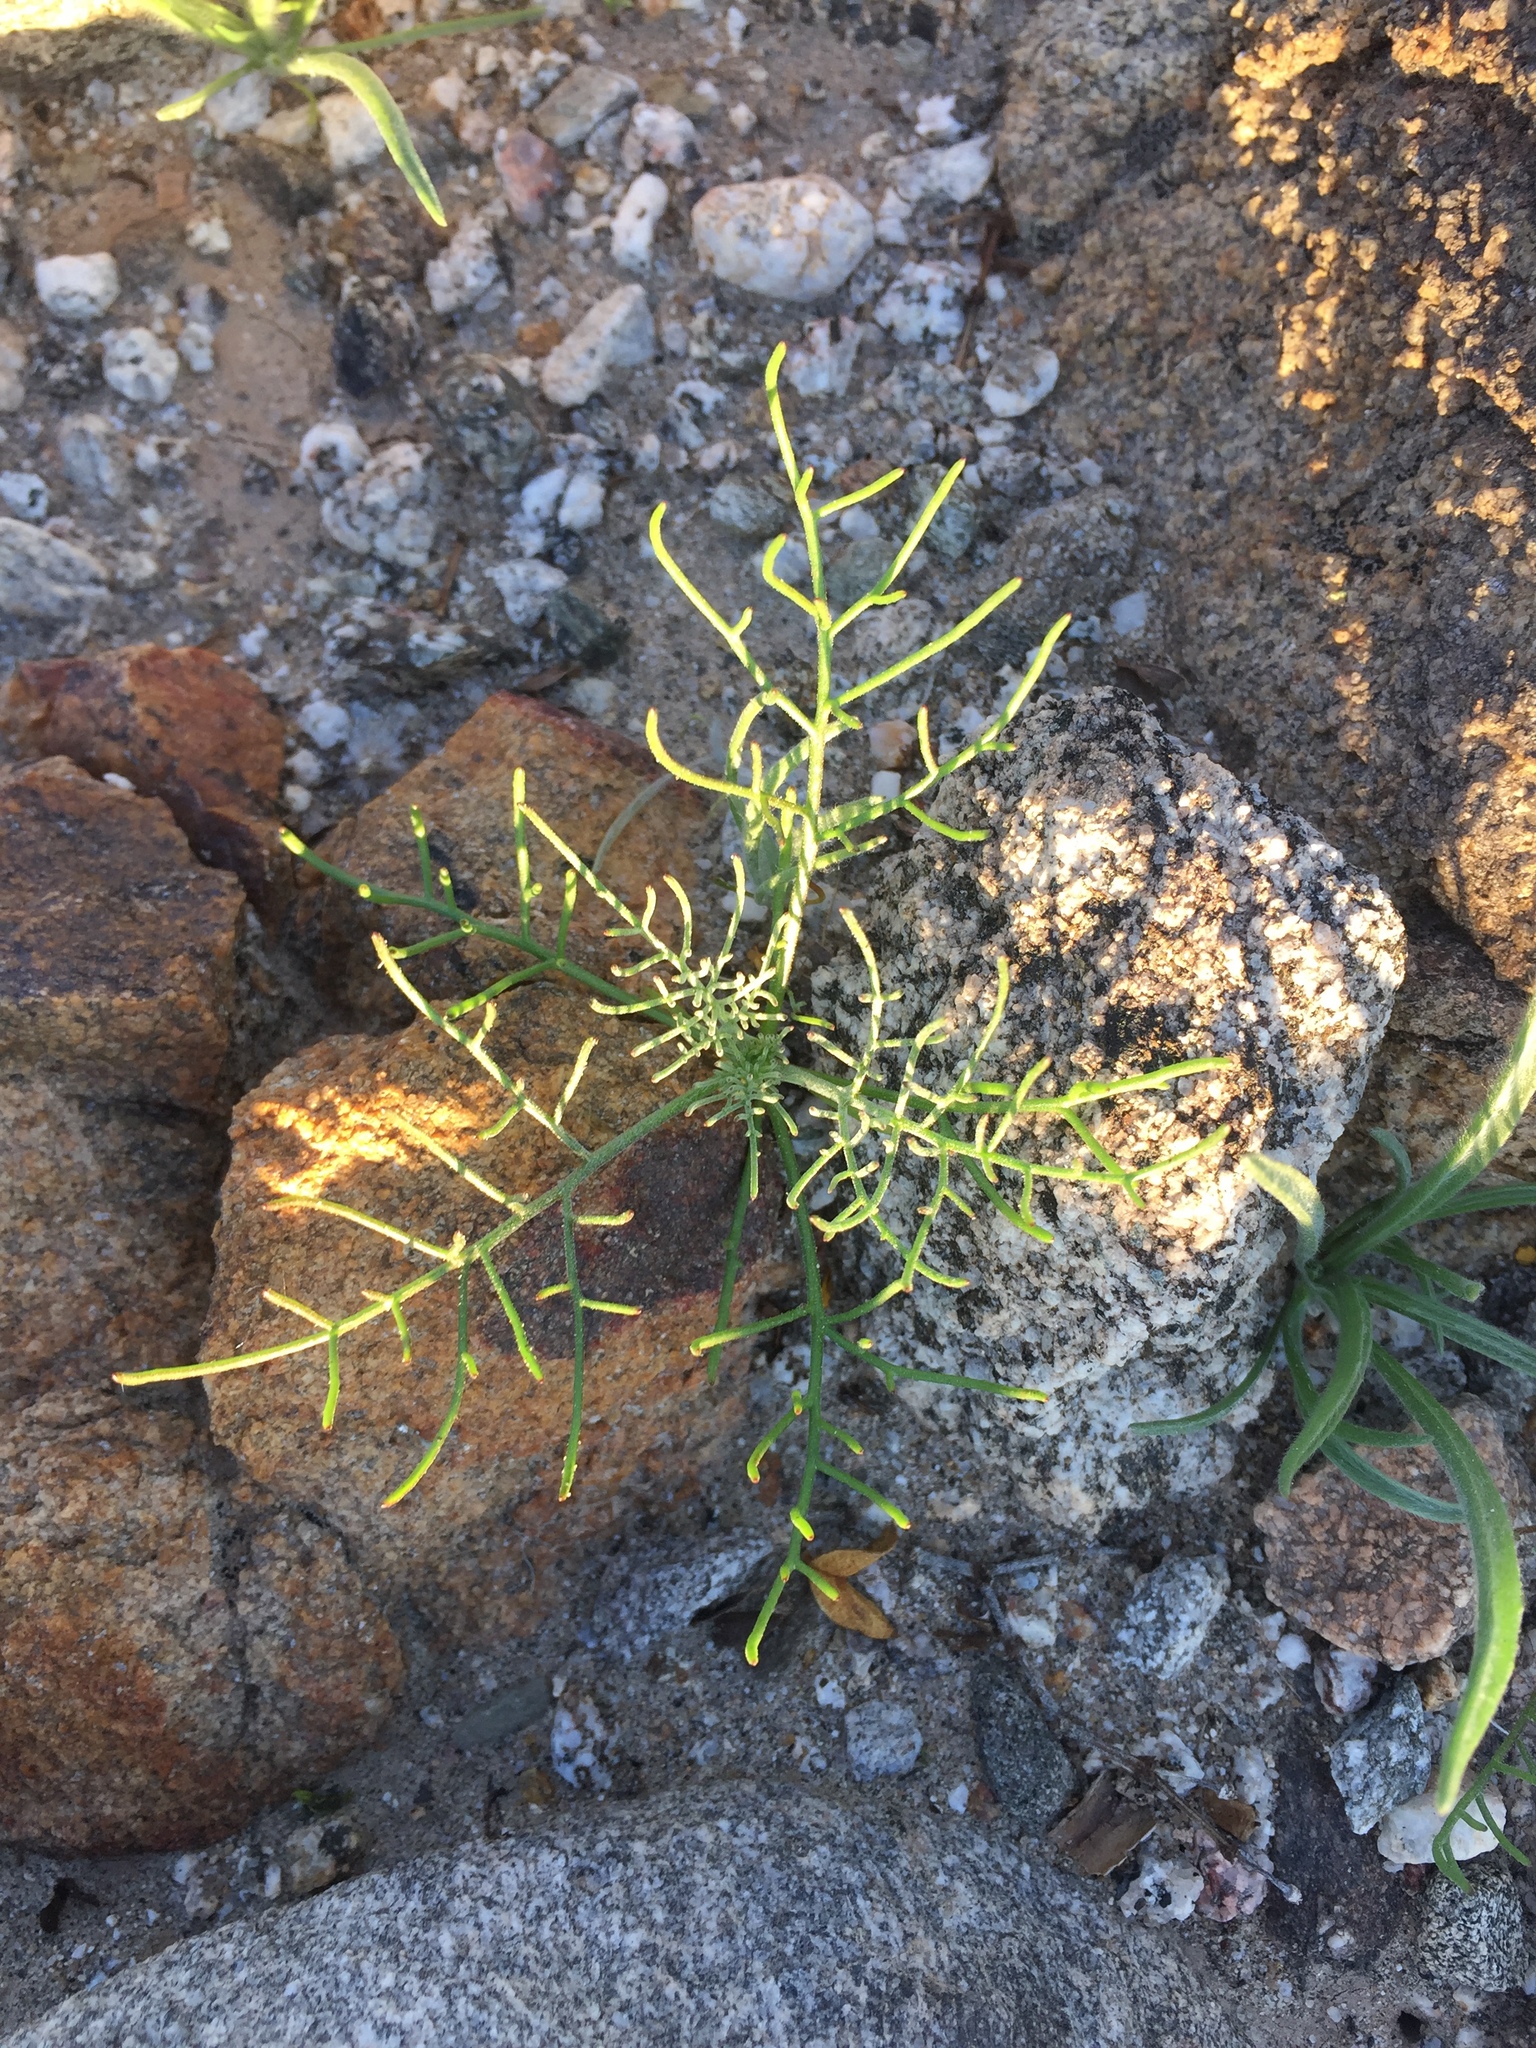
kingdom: Plantae
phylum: Tracheophyta
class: Magnoliopsida
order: Asterales
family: Asteraceae
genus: Chaenactis
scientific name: Chaenactis carphoclinia
